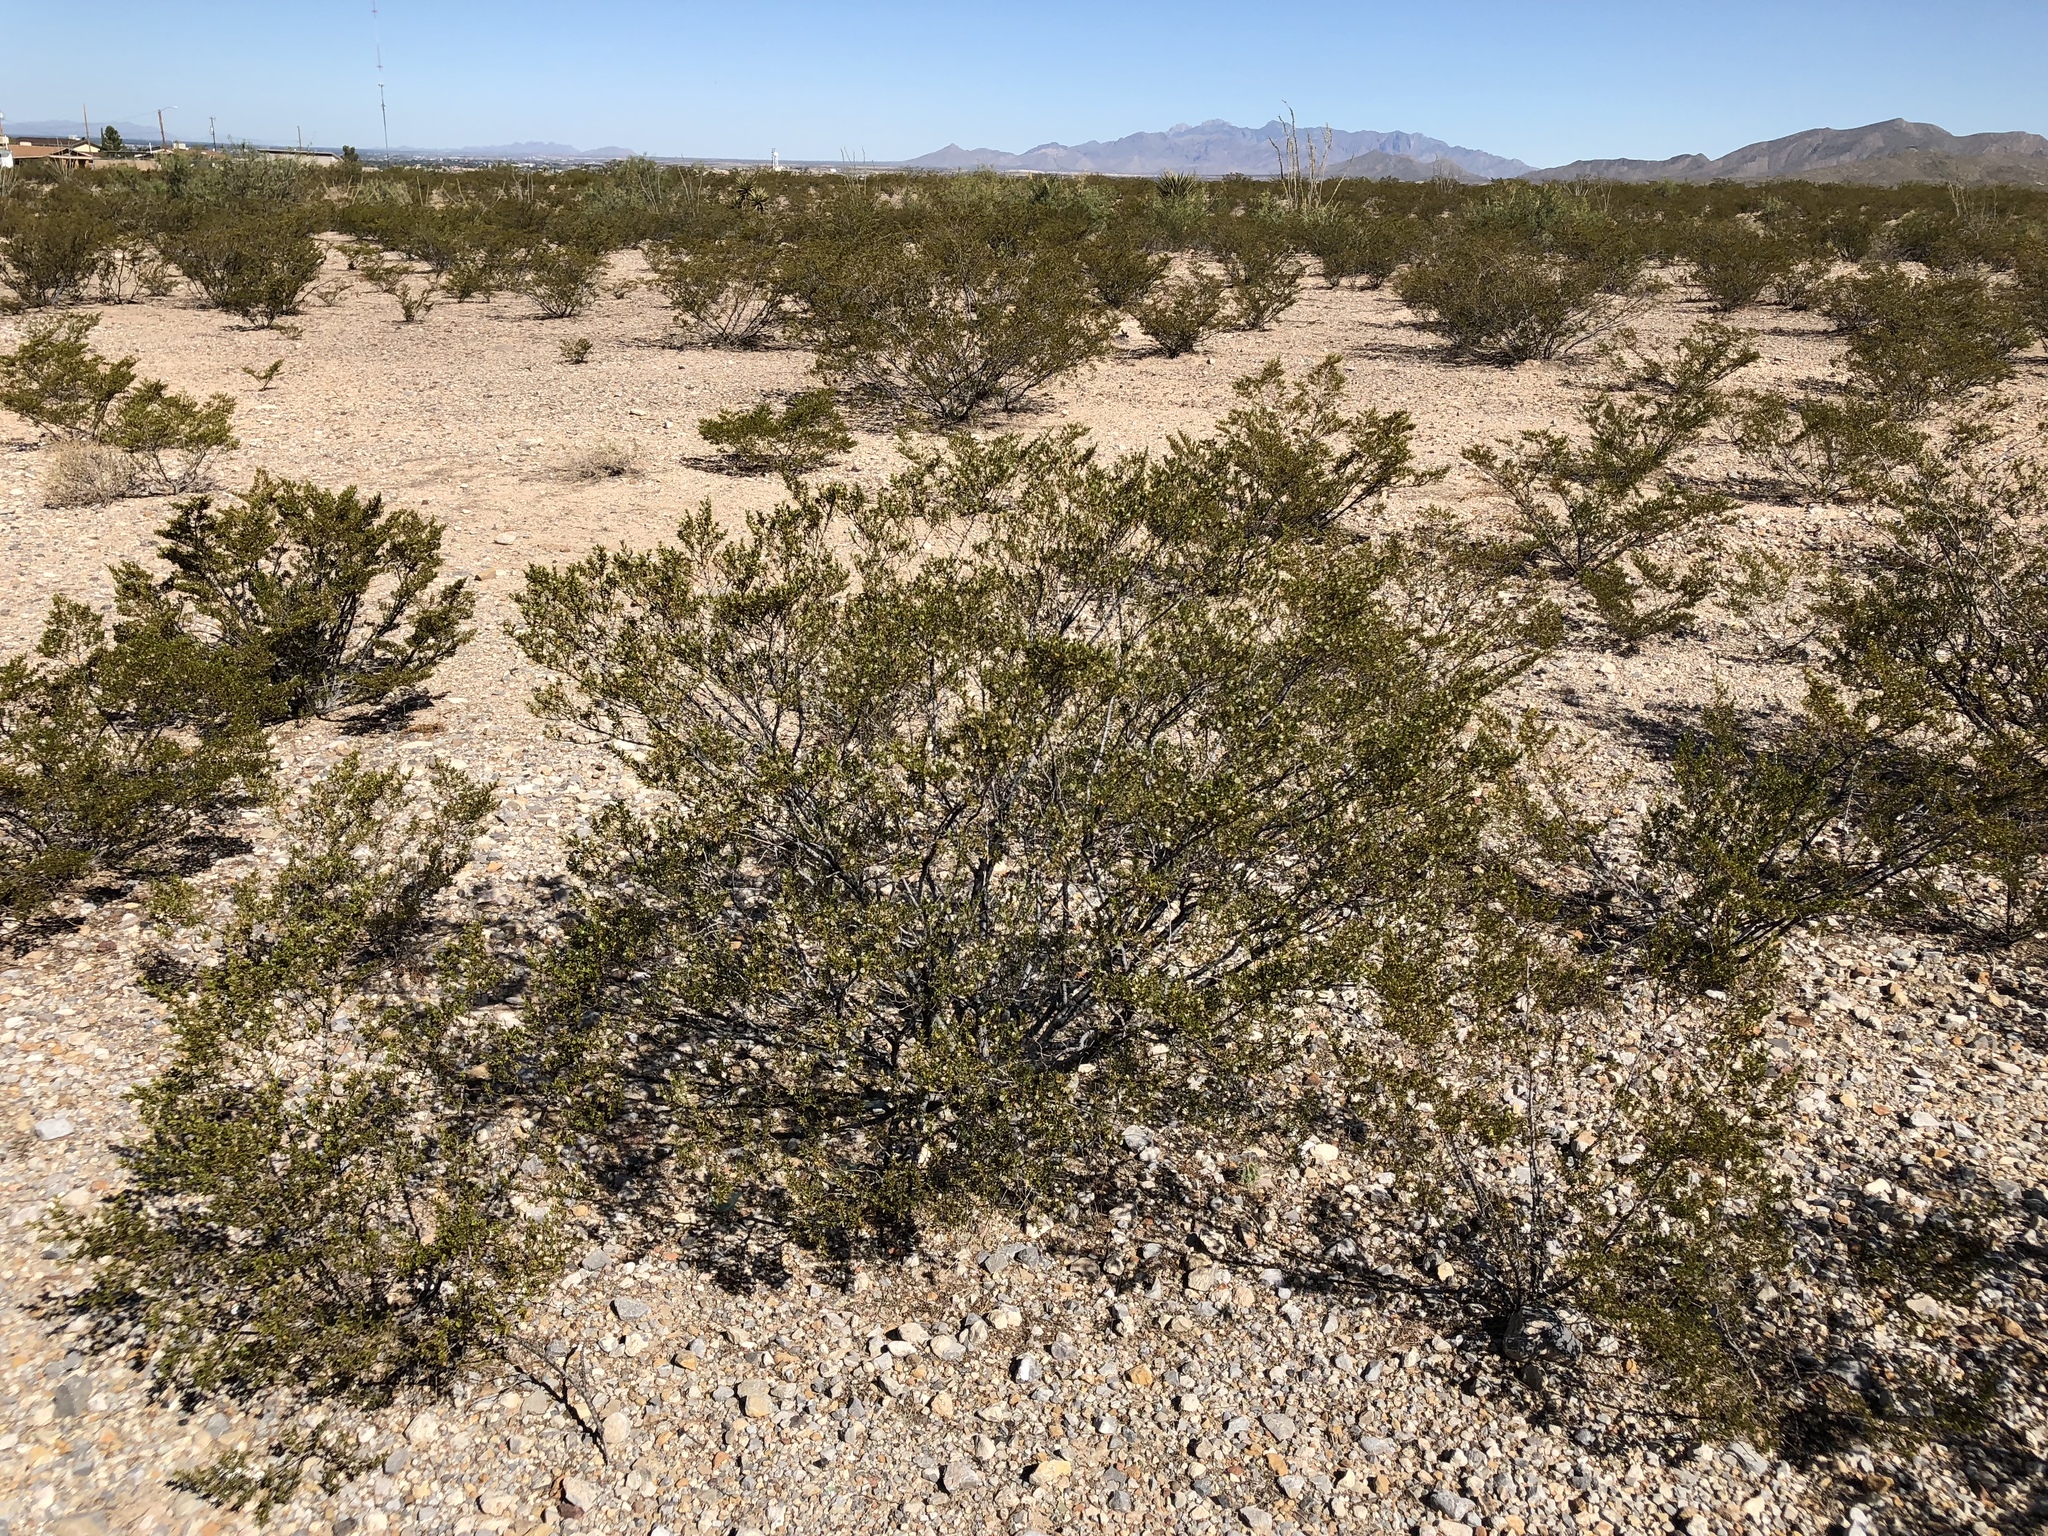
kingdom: Plantae
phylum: Tracheophyta
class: Magnoliopsida
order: Zygophyllales
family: Zygophyllaceae
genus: Larrea
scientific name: Larrea tridentata
